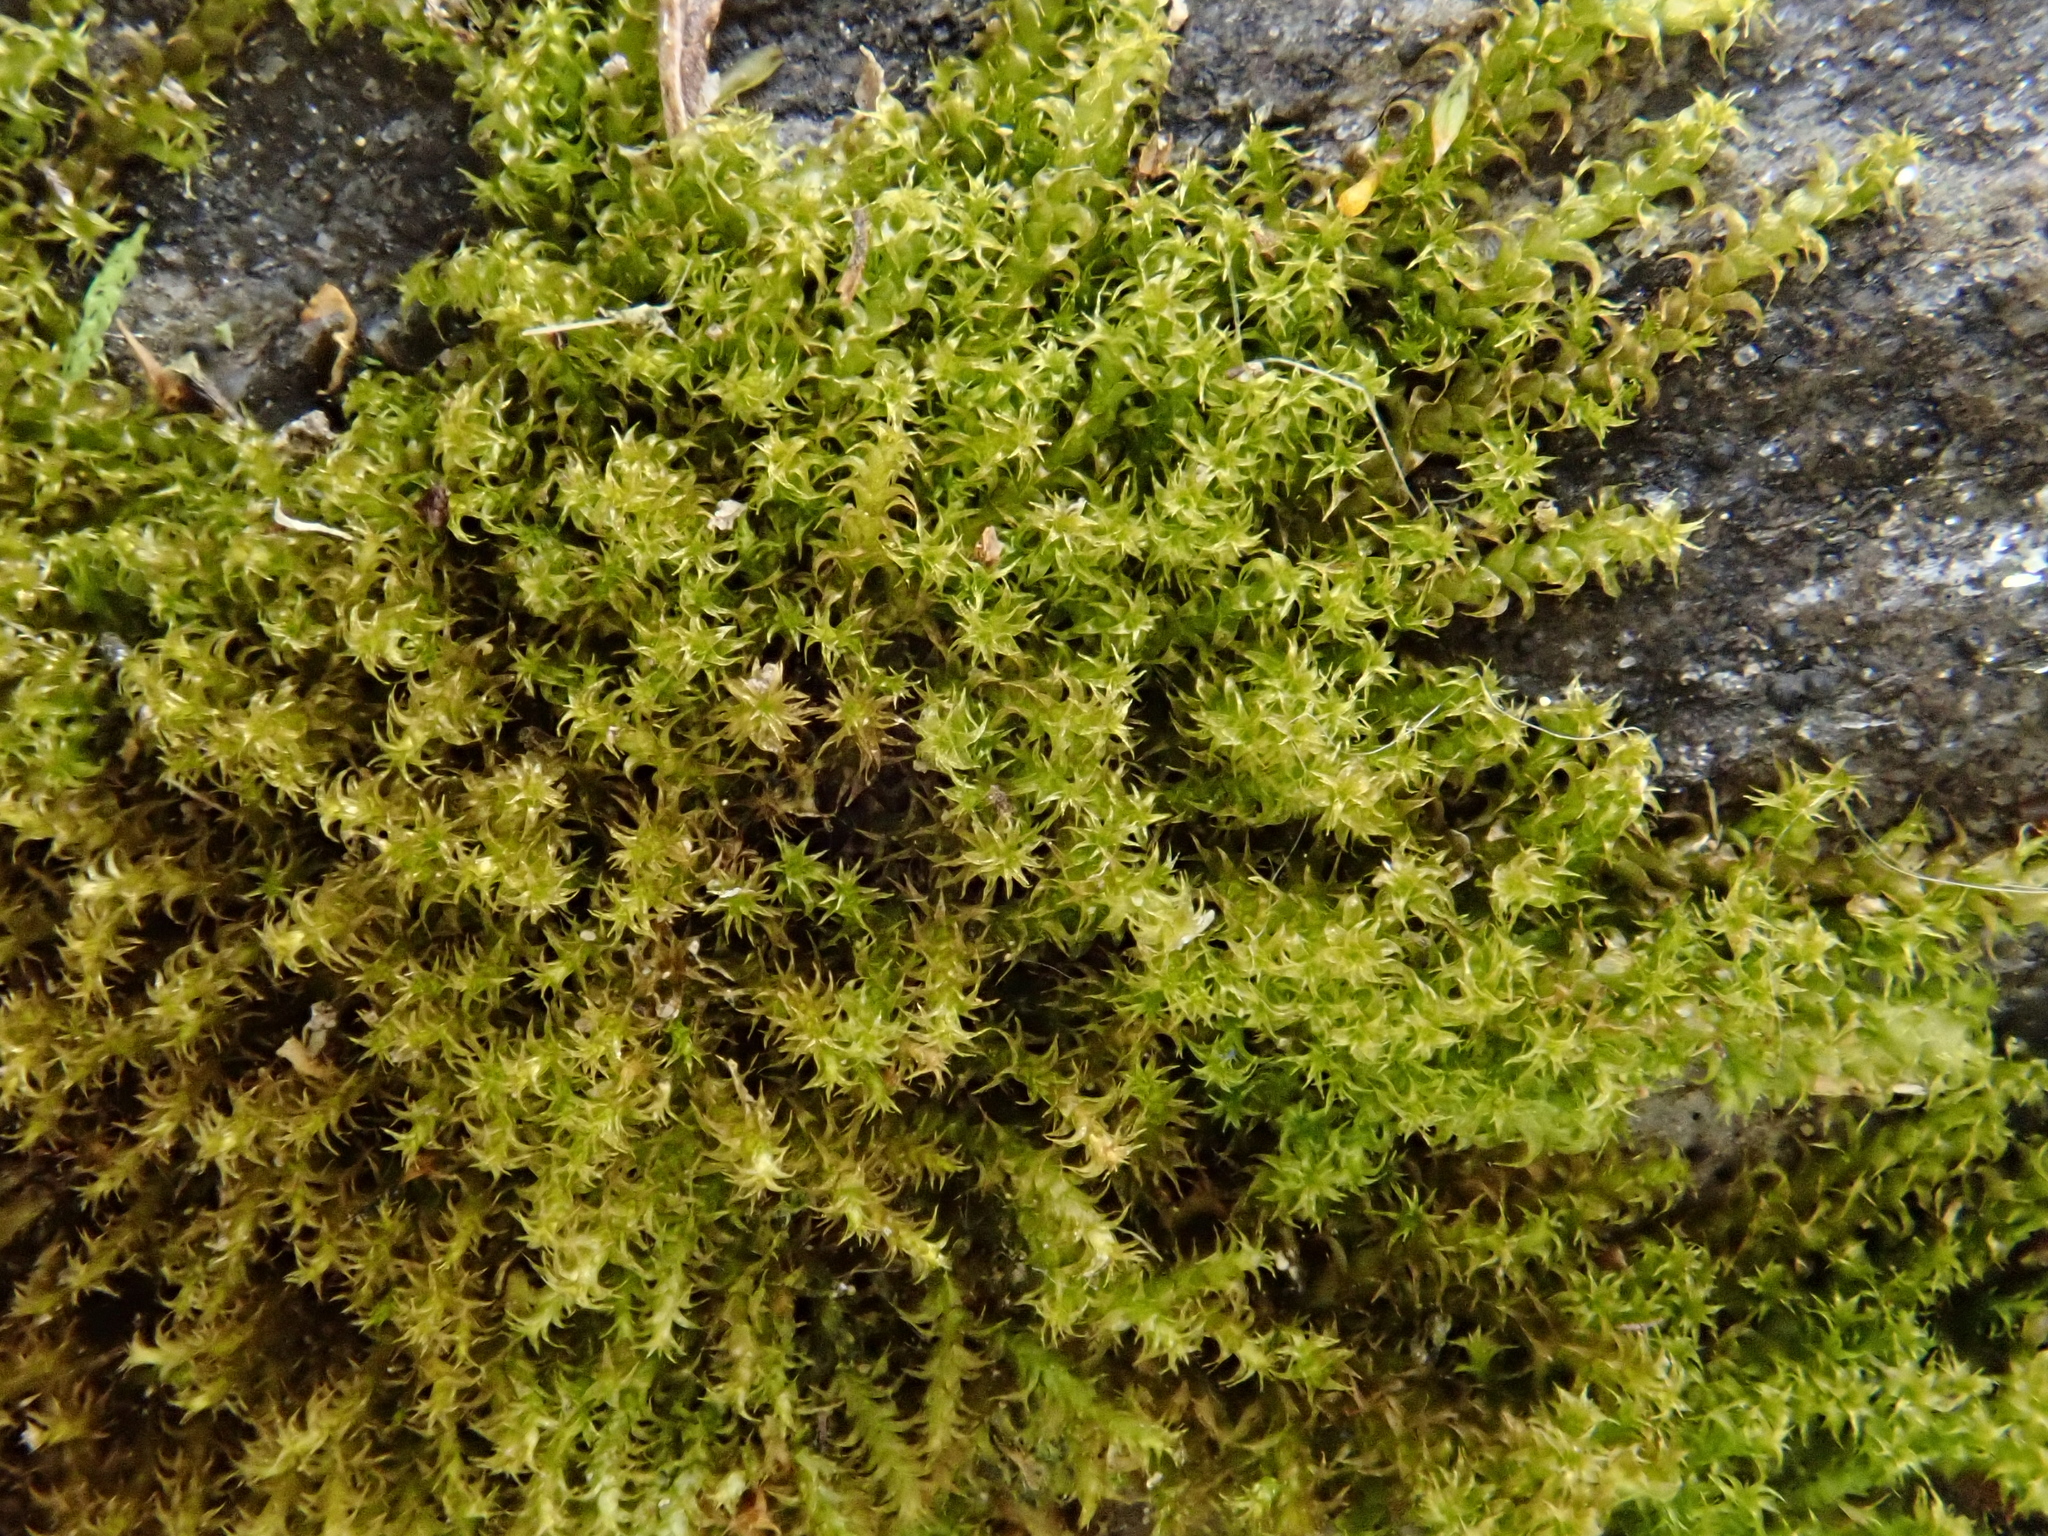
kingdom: Plantae
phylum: Bryophyta
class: Bryopsida
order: Hypnales
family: Amblystegiaceae
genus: Campylophyllum
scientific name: Campylophyllum halleri
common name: Haller's fine wet moss
